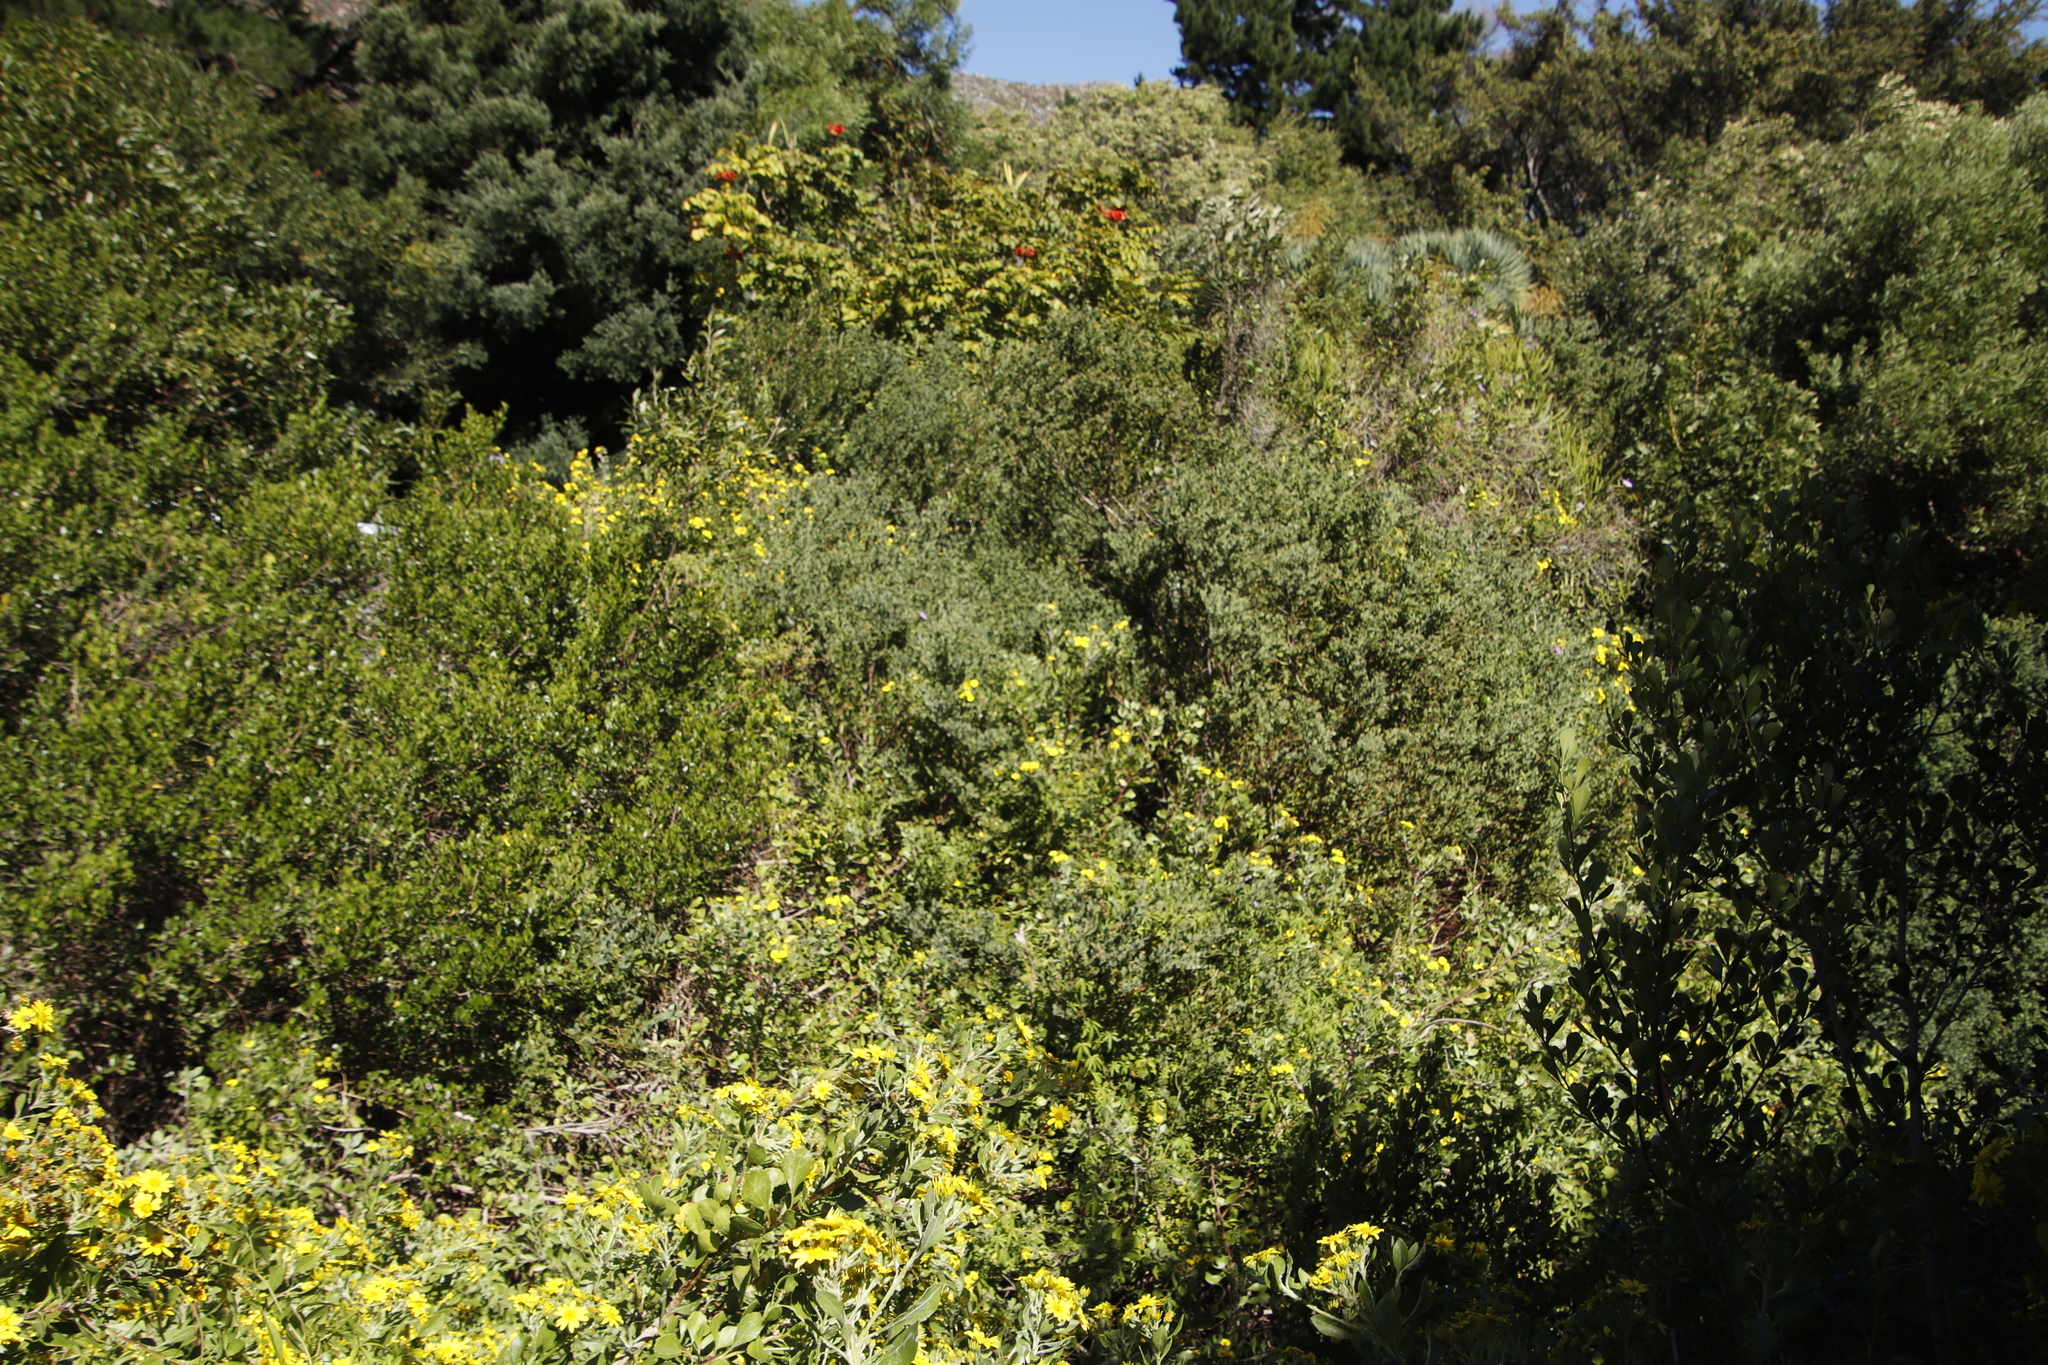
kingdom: Plantae
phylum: Tracheophyta
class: Magnoliopsida
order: Asterales
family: Asteraceae
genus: Osteospermum
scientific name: Osteospermum moniliferum
